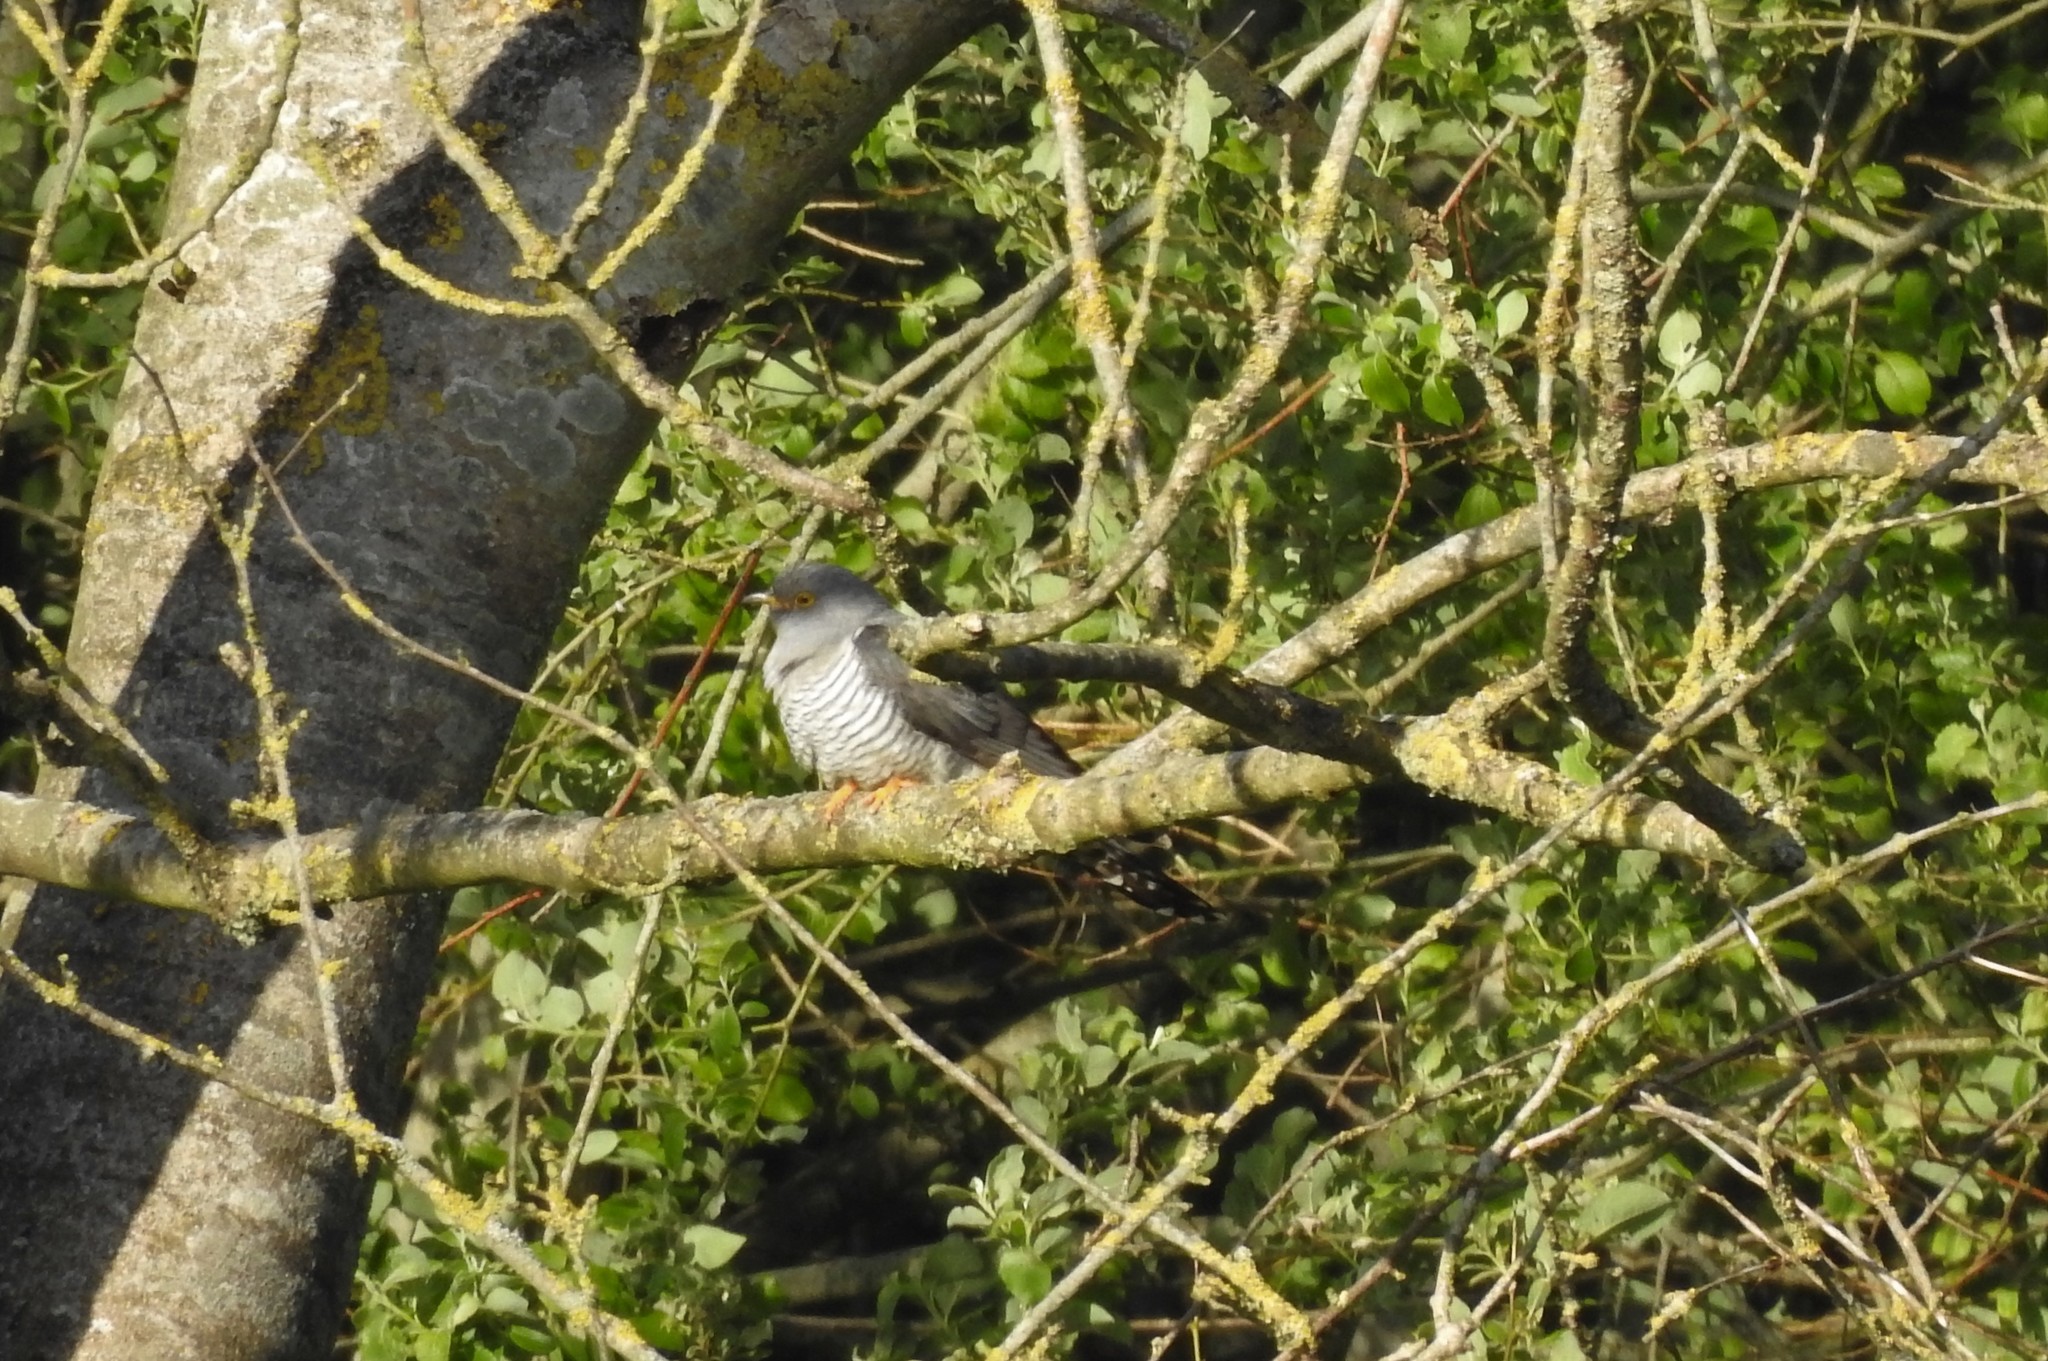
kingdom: Animalia
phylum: Chordata
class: Aves
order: Cuculiformes
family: Cuculidae
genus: Cuculus
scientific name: Cuculus canorus
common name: Common cuckoo
